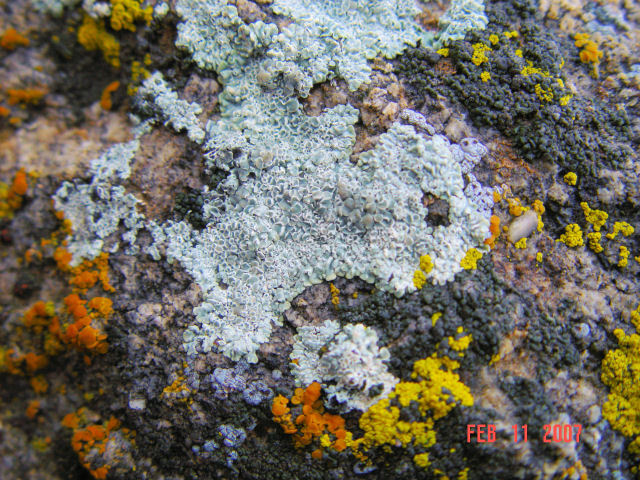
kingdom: Fungi
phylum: Ascomycota
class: Lecanoromycetes
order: Lecanorales
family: Lecanoraceae
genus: Protoparmeliopsis
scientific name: Protoparmeliopsis muralis
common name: Stonewall rim lichen
